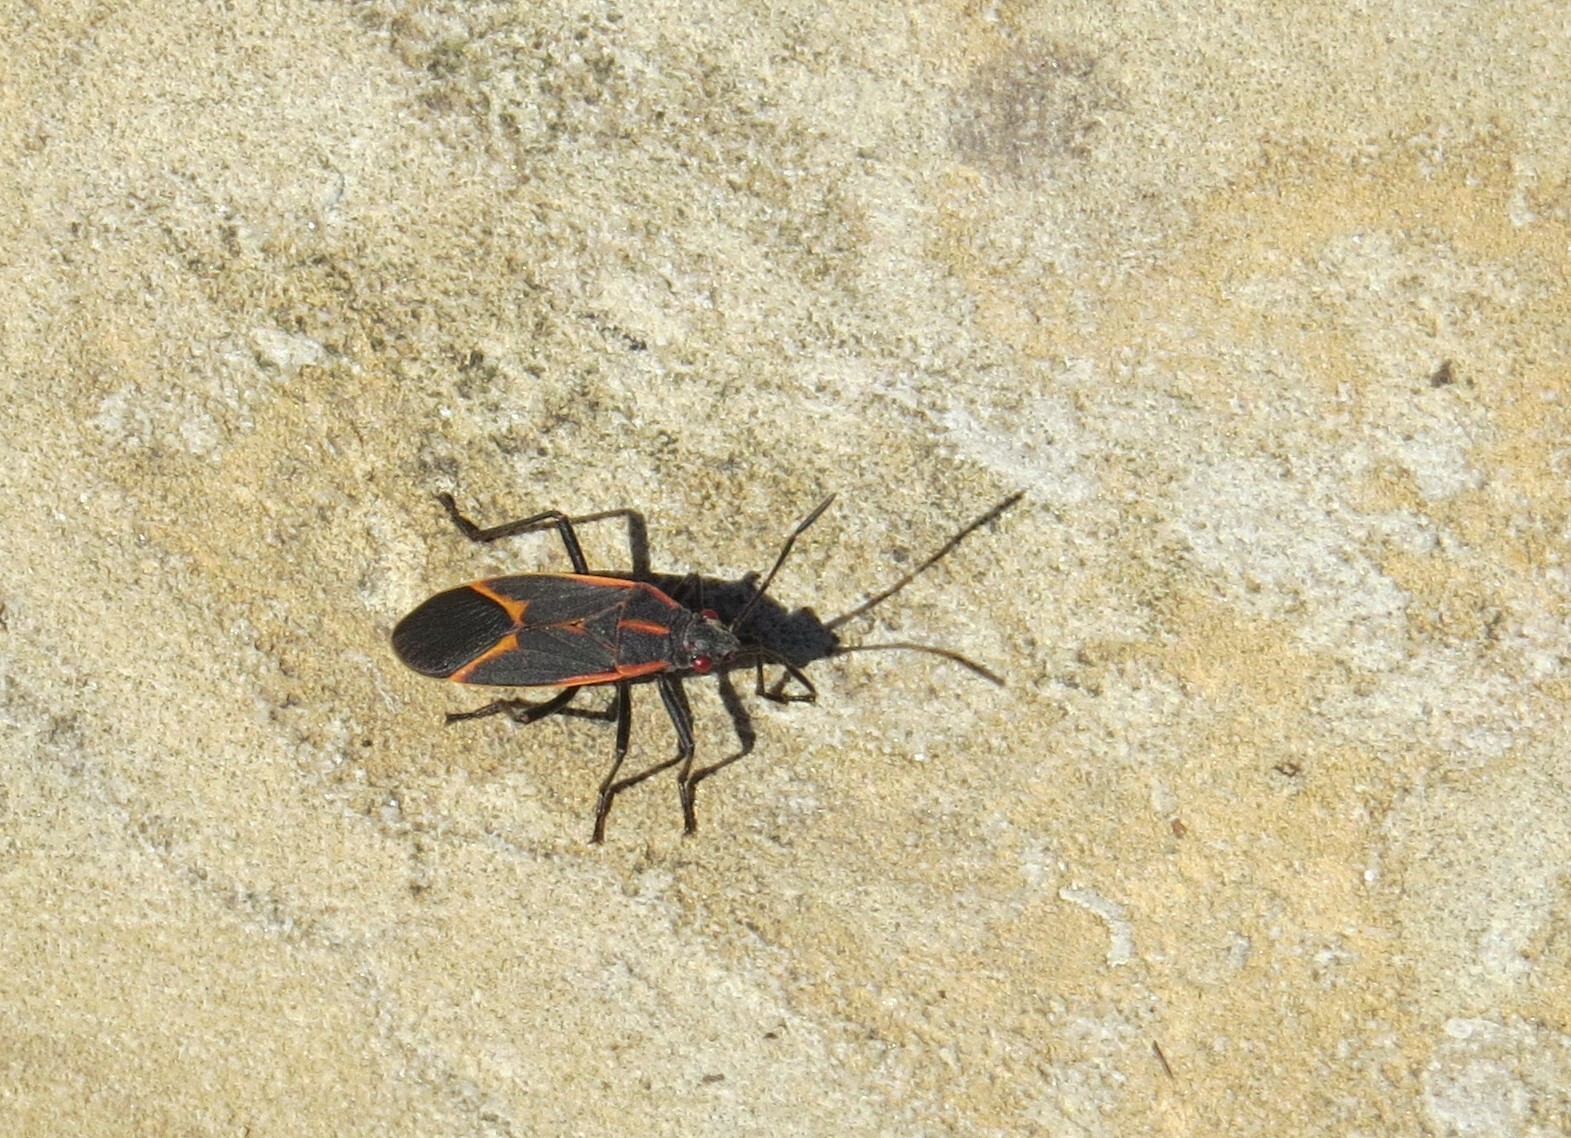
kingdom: Animalia
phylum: Arthropoda
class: Insecta
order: Hemiptera
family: Rhopalidae
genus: Boisea
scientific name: Boisea trivittata
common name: Boxelder bug
